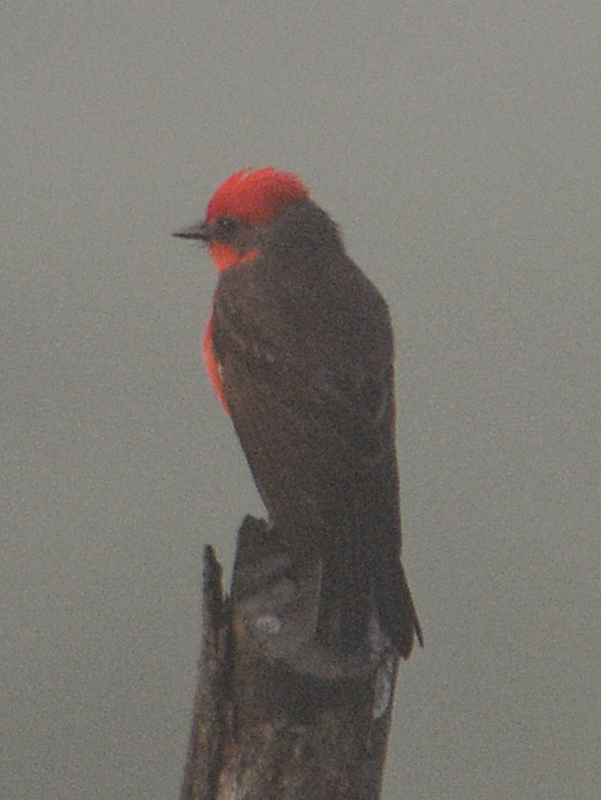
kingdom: Animalia
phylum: Chordata
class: Aves
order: Passeriformes
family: Tyrannidae
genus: Pyrocephalus
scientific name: Pyrocephalus rubinus
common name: Vermilion flycatcher
